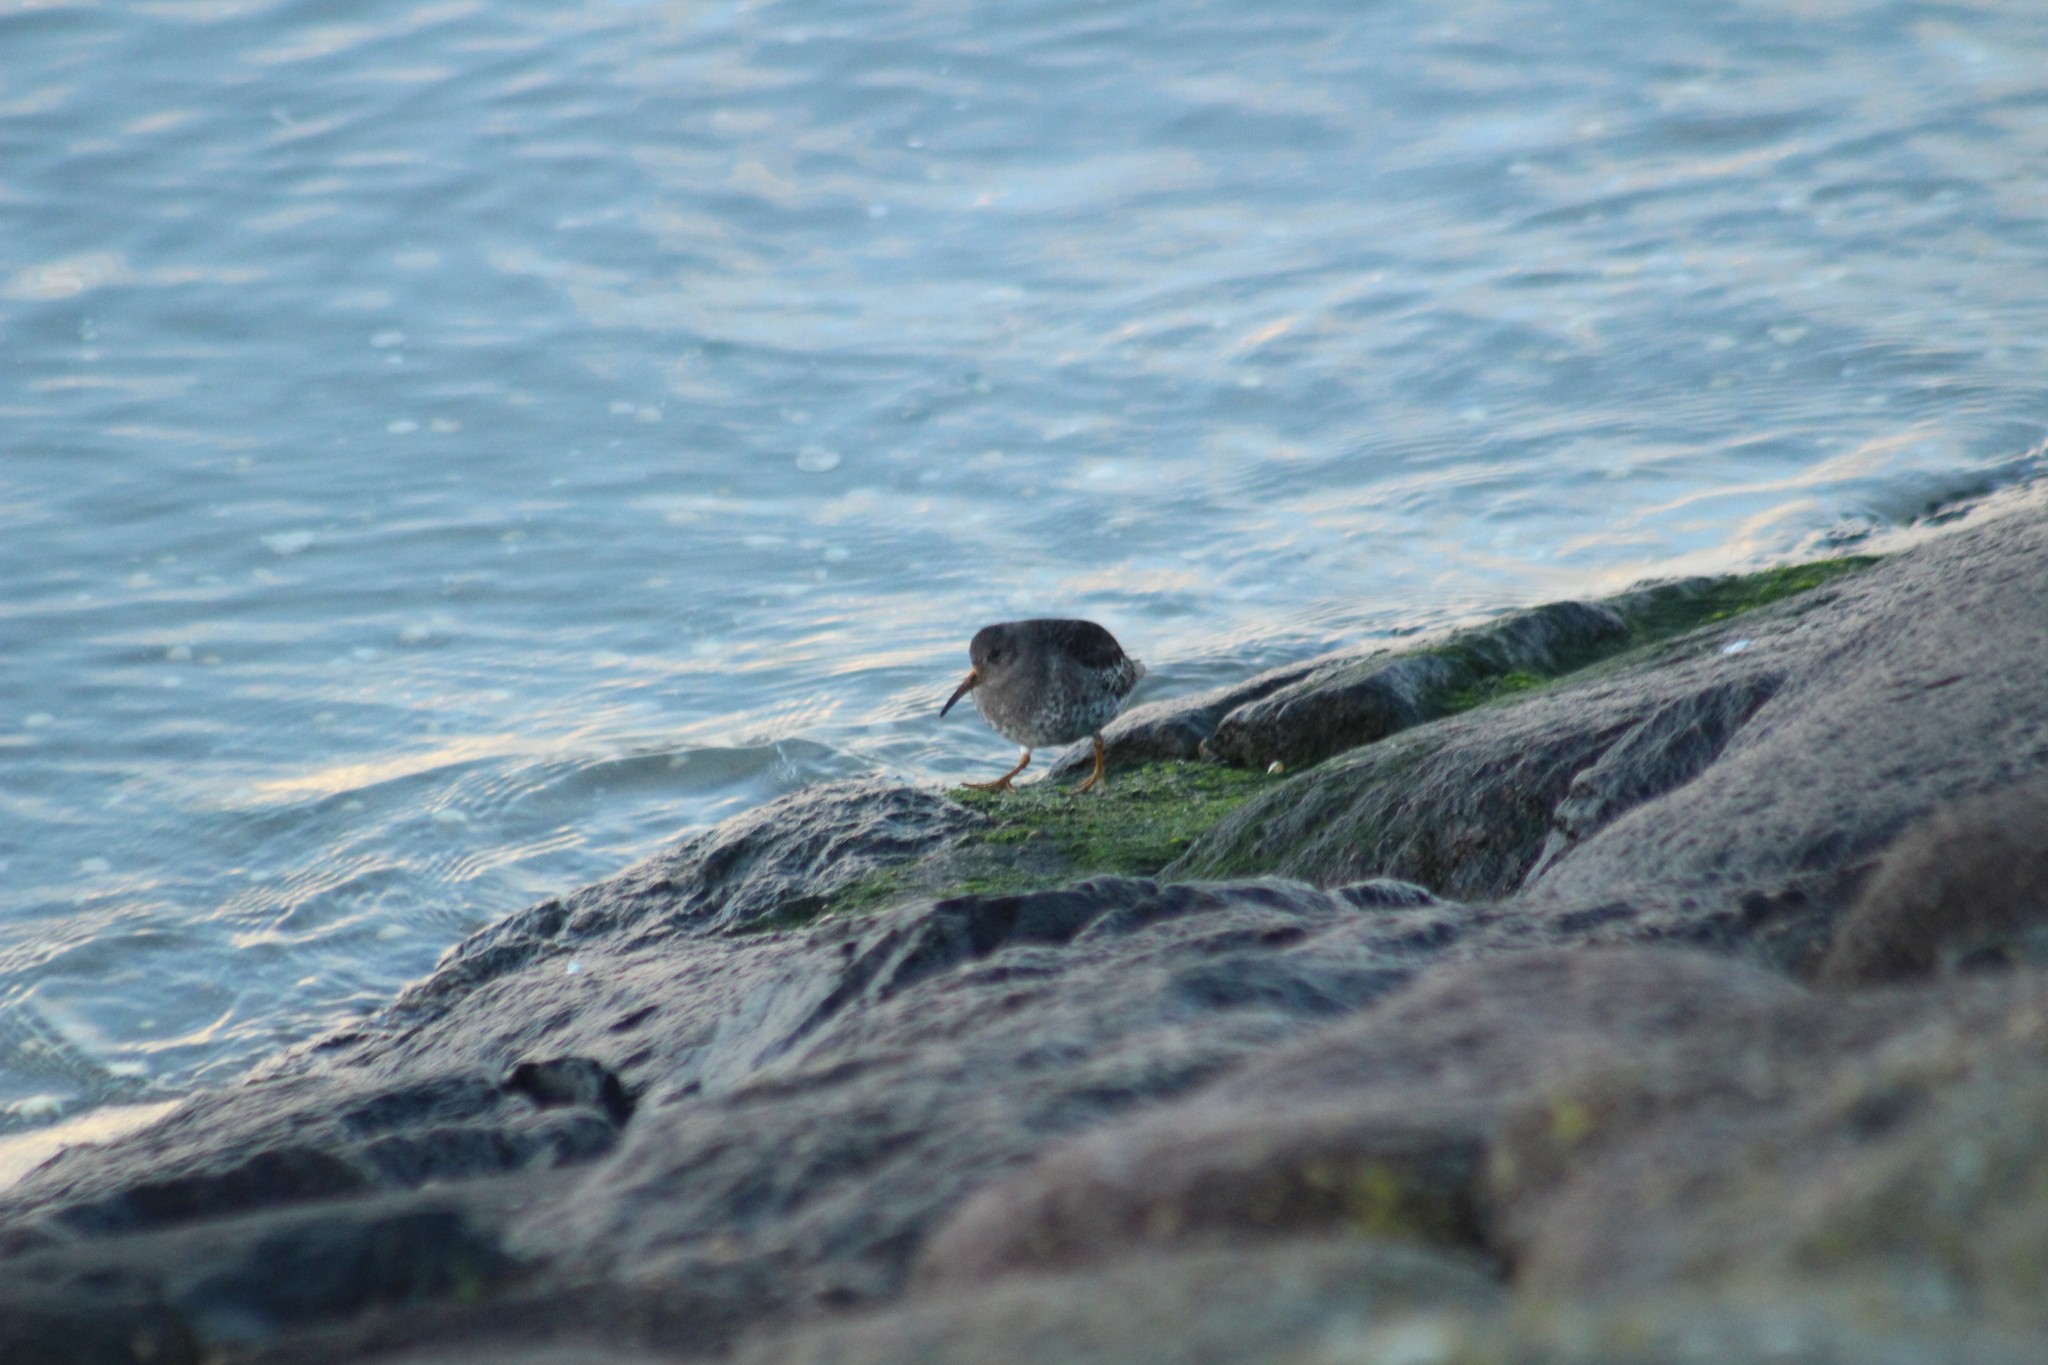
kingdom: Animalia
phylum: Chordata
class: Aves
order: Charadriiformes
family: Scolopacidae
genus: Calidris
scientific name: Calidris maritima
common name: Purple sandpiper
